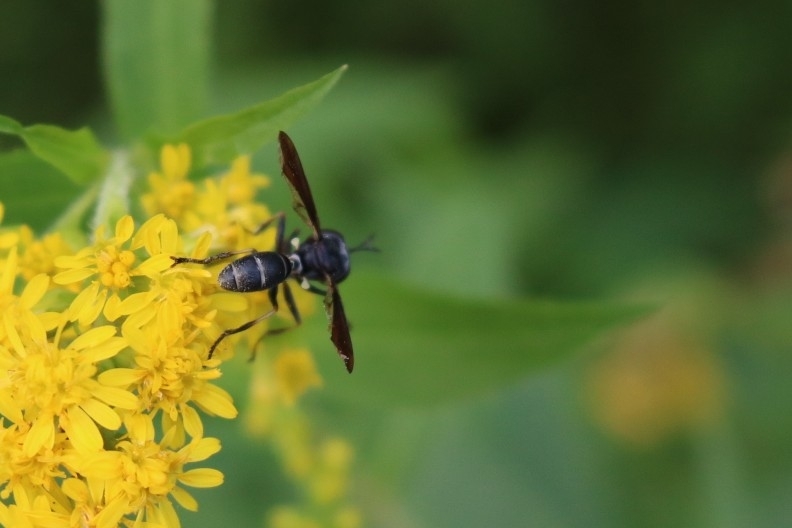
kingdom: Animalia
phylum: Arthropoda
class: Insecta
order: Diptera
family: Conopidae
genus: Physocephala
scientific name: Physocephala tibialis
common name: Common eastern physocephala
